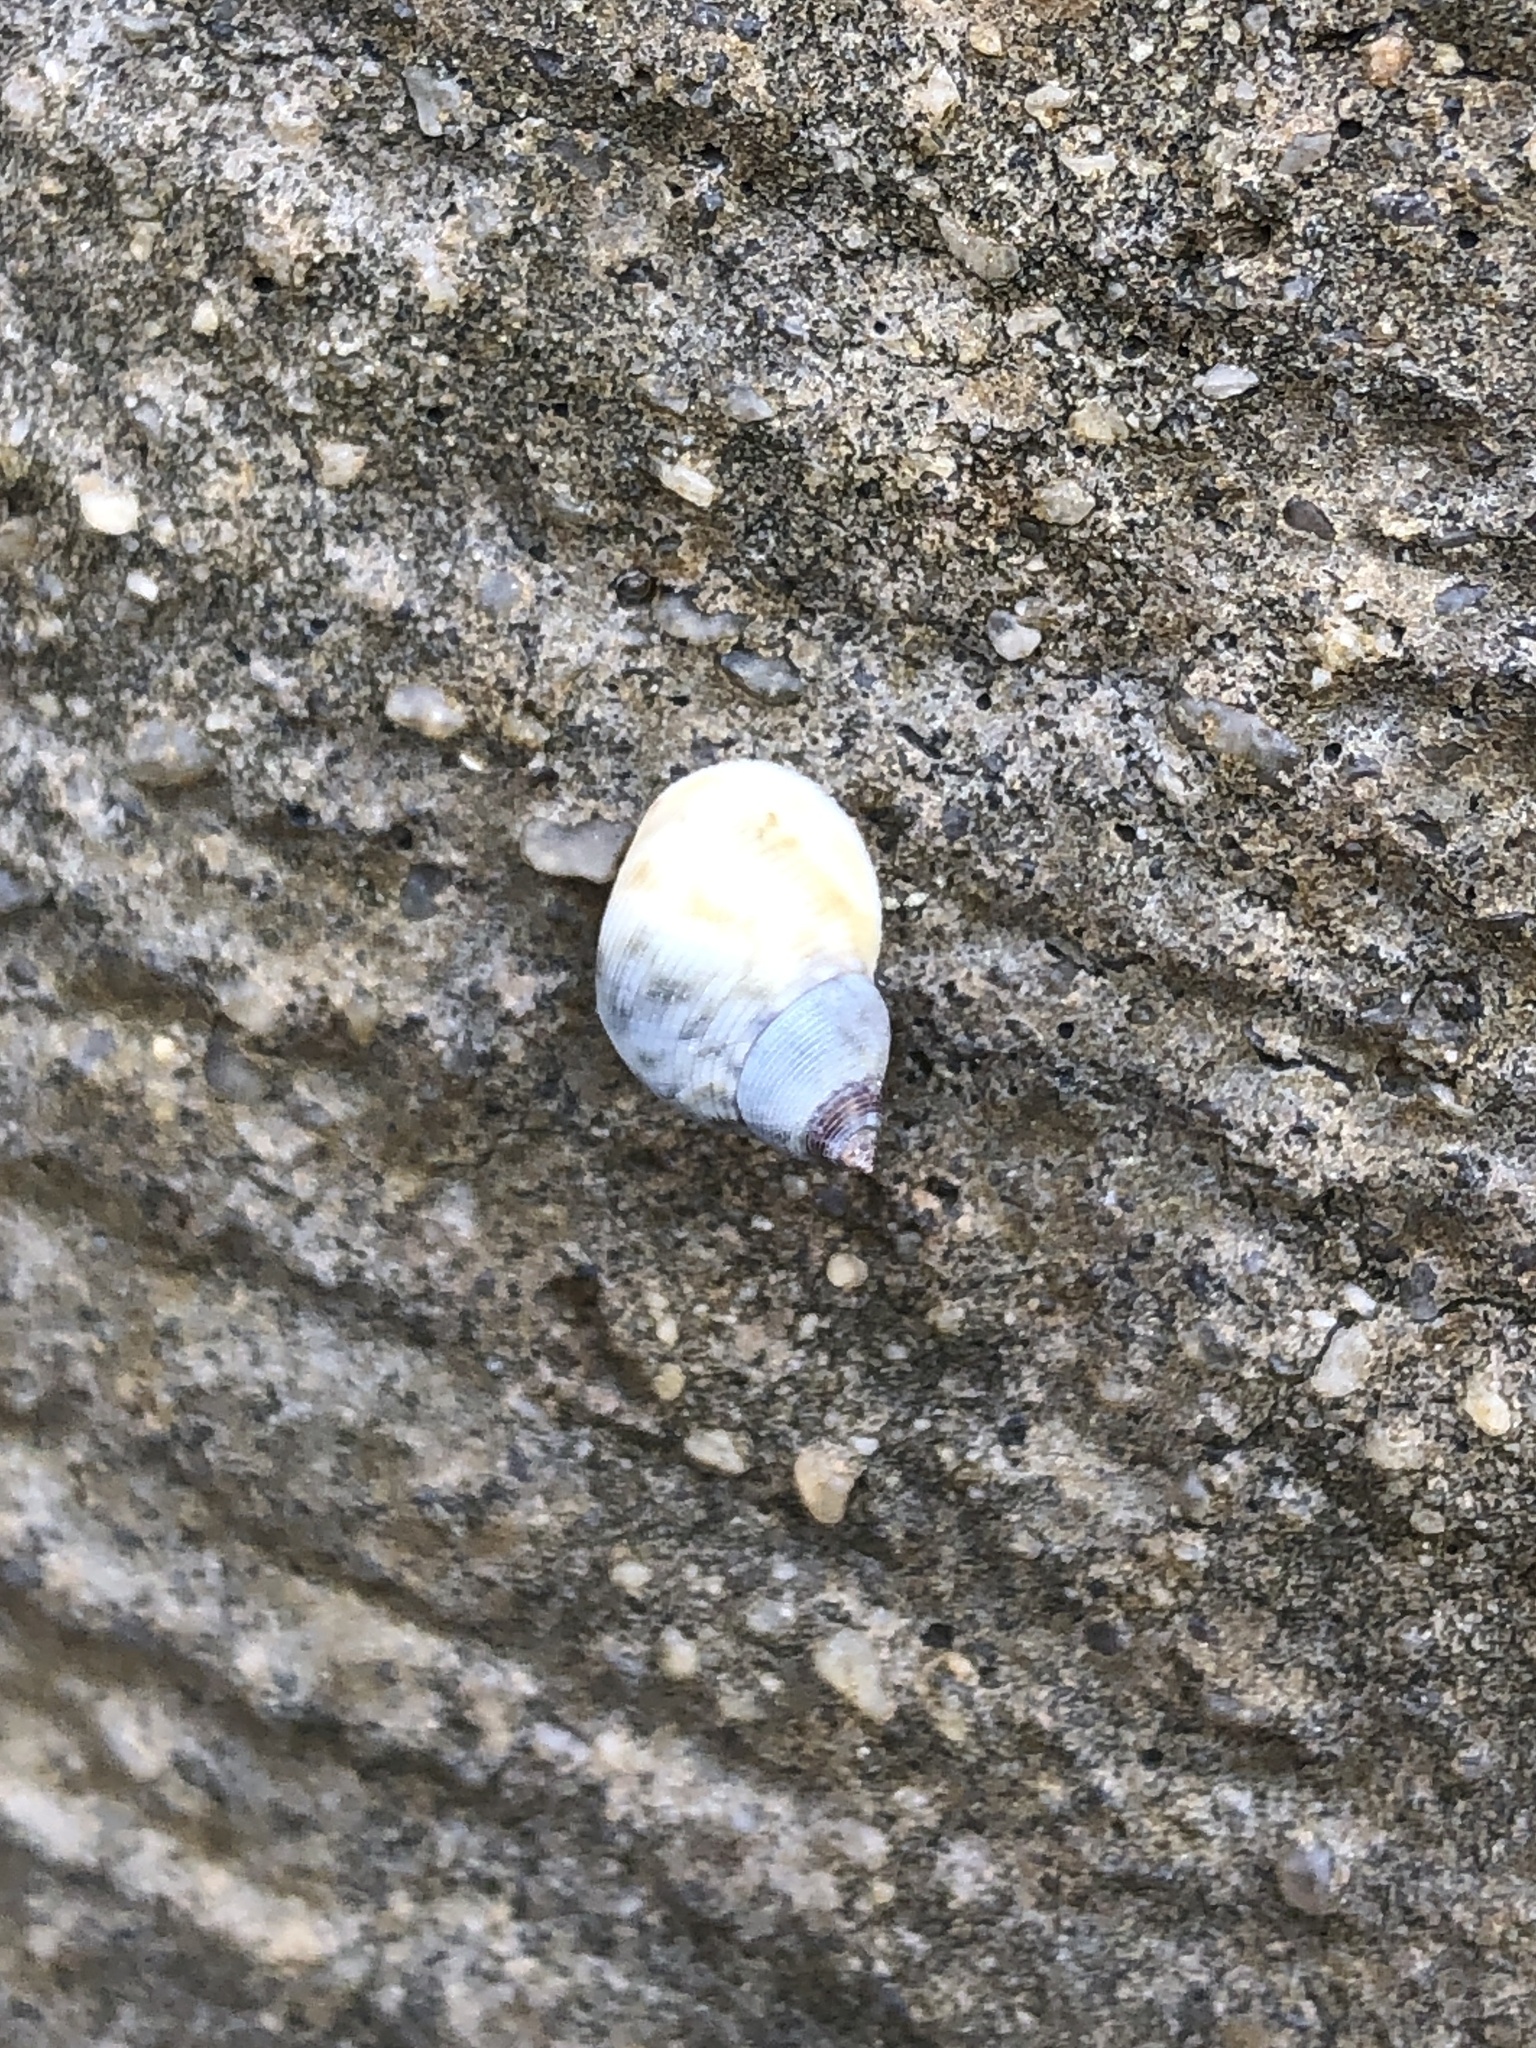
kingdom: Animalia
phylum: Mollusca
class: Gastropoda
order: Littorinimorpha
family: Littorinidae
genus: Littoraria
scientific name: Littoraria nebulosa
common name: Cloudy periwinkle
